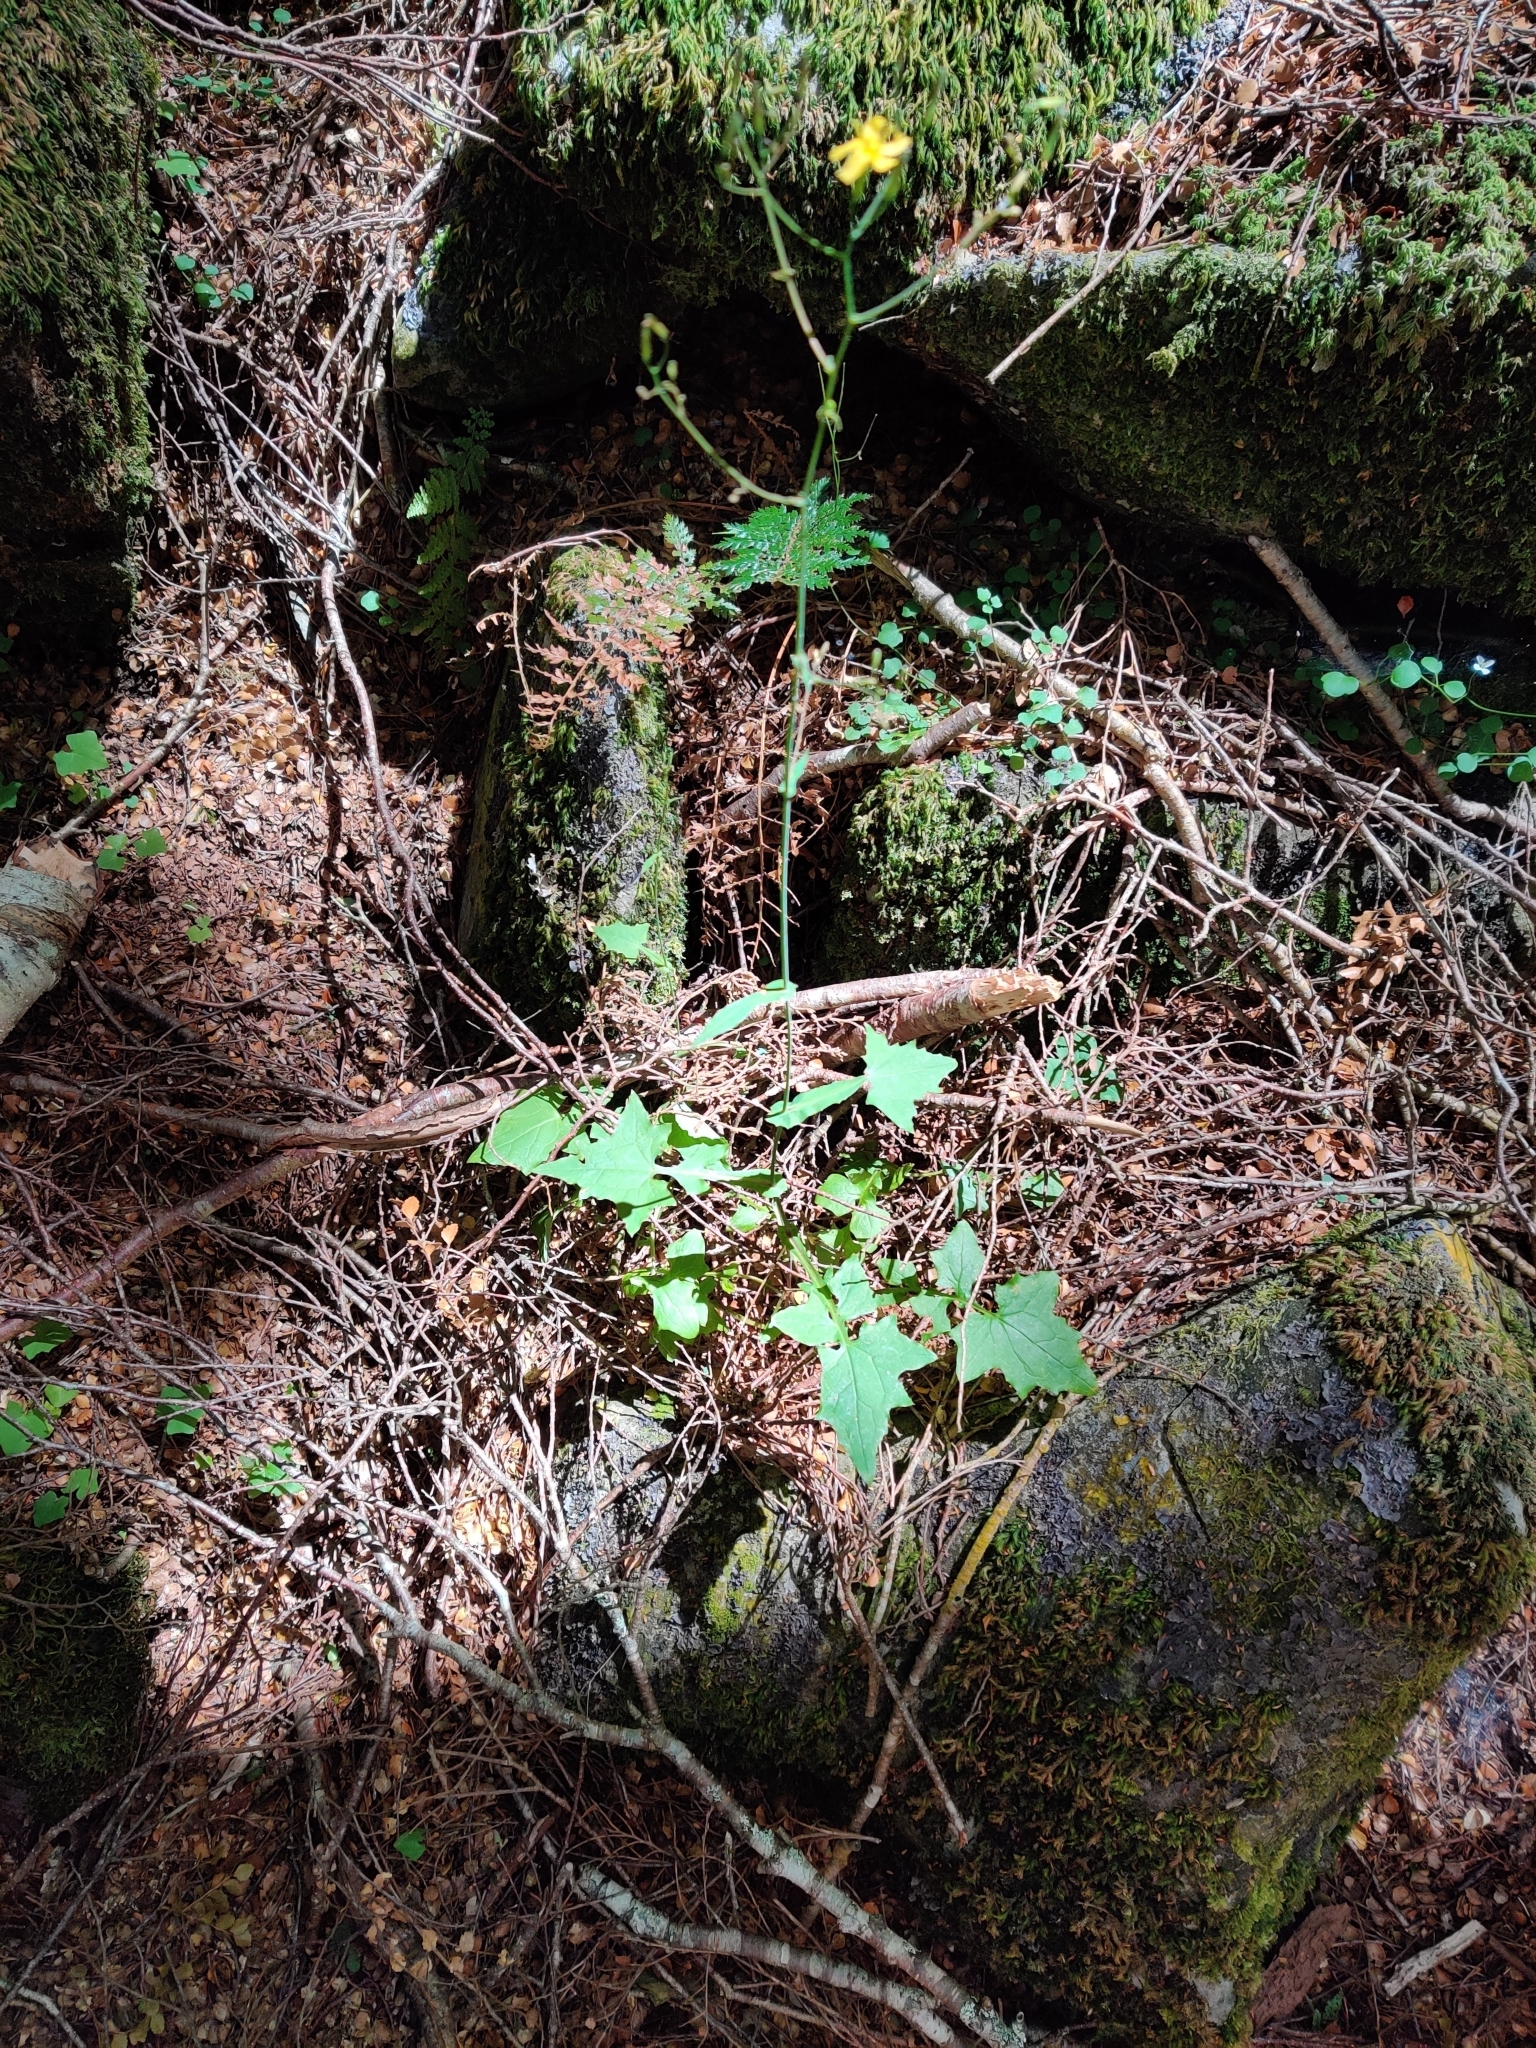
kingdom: Plantae
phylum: Tracheophyta
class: Magnoliopsida
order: Asterales
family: Asteraceae
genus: Mycelis
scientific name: Mycelis muralis
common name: Wall lettuce
